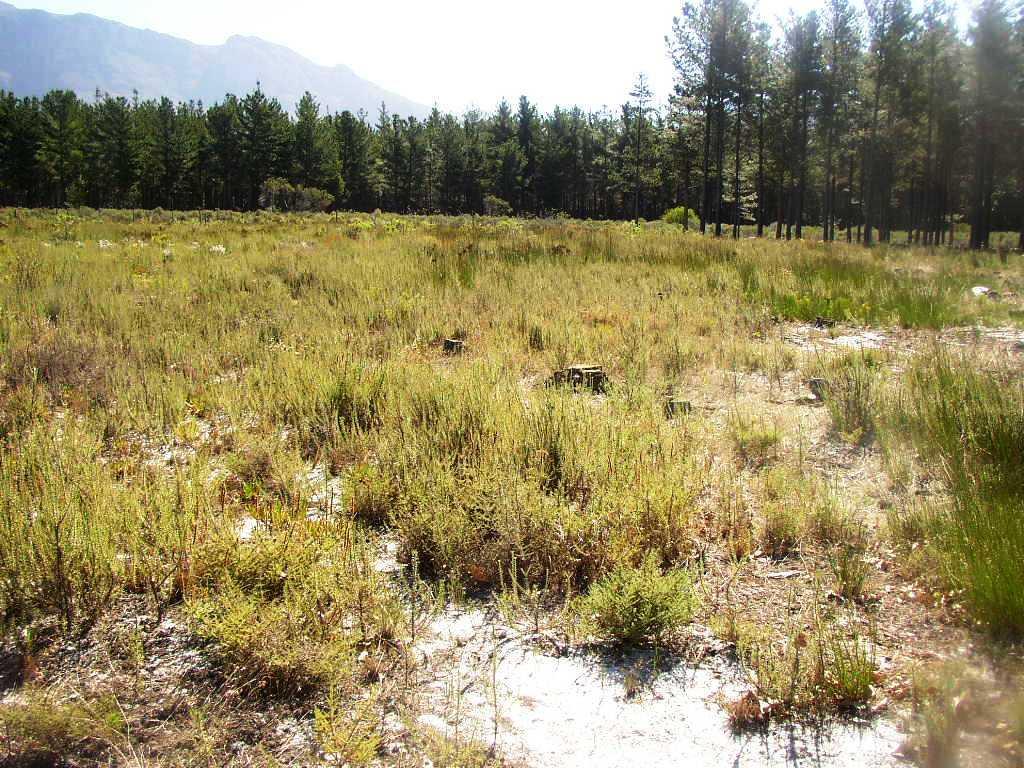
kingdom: Plantae
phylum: Tracheophyta
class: Magnoliopsida
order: Asterales
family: Asteraceae
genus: Metalasia
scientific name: Metalasia densa
